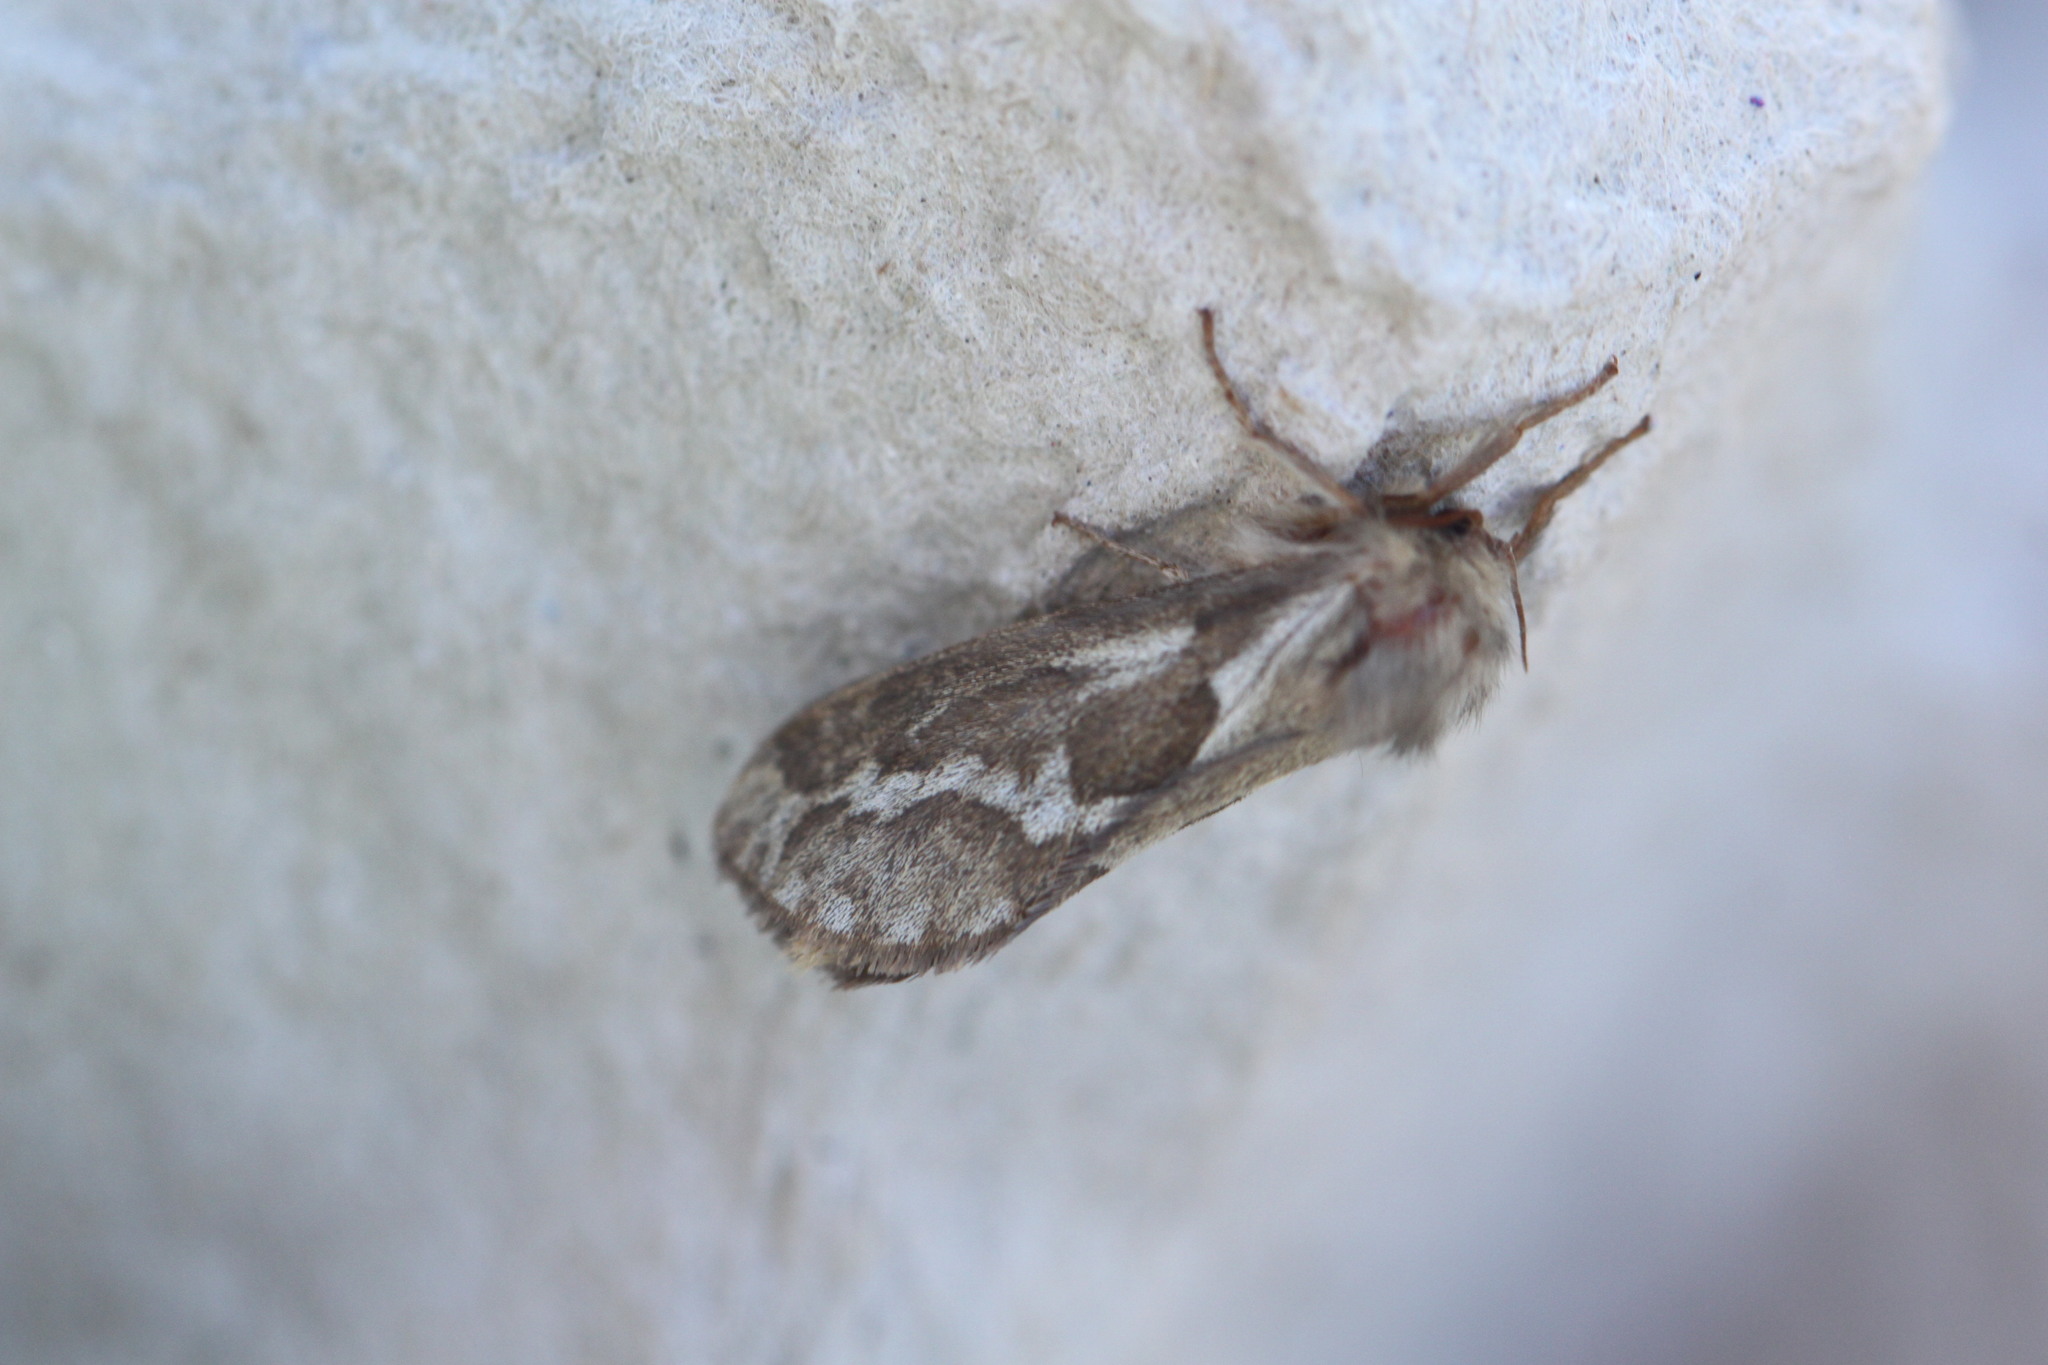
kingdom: Animalia
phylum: Arthropoda
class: Insecta
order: Lepidoptera
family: Hepialidae
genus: Korscheltellus
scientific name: Korscheltellus lupulina
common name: Common swift
